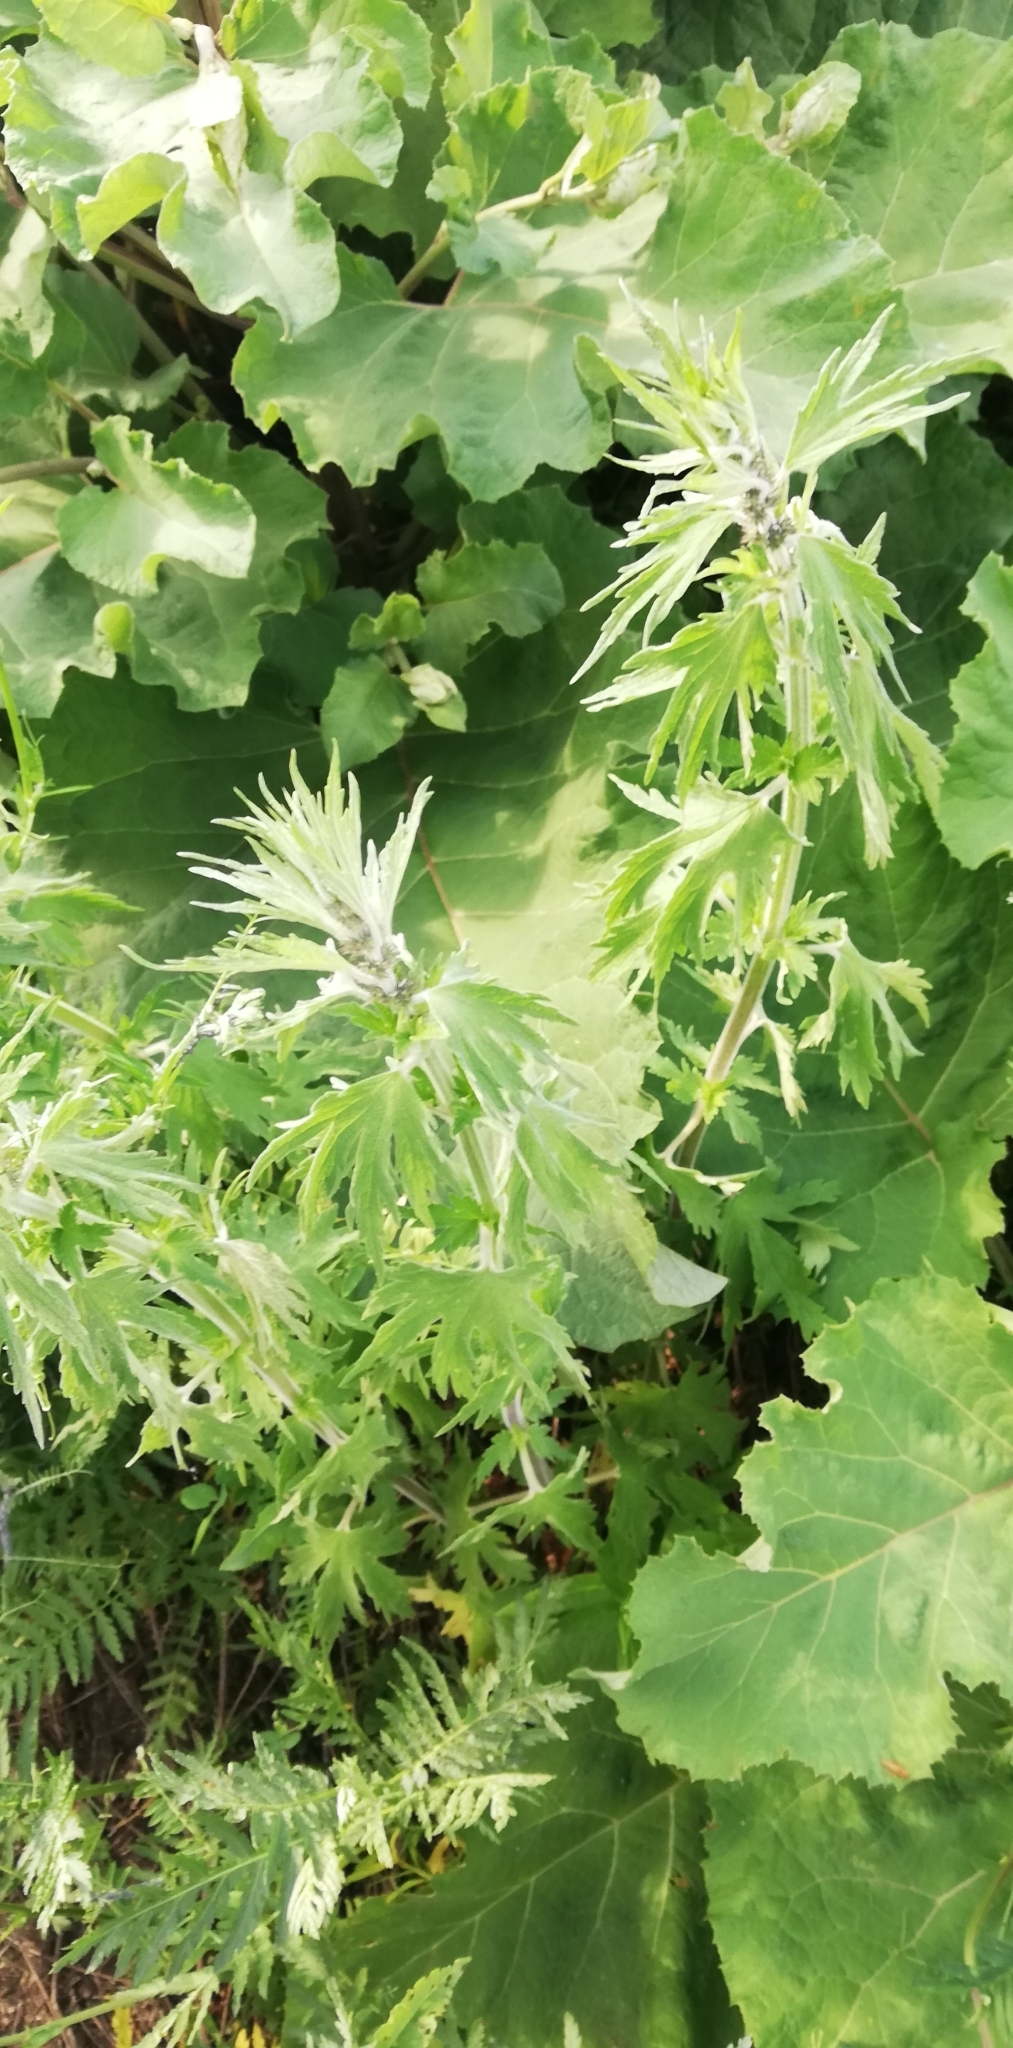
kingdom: Plantae
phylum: Tracheophyta
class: Magnoliopsida
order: Lamiales
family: Lamiaceae
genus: Leonurus
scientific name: Leonurus quinquelobatus
